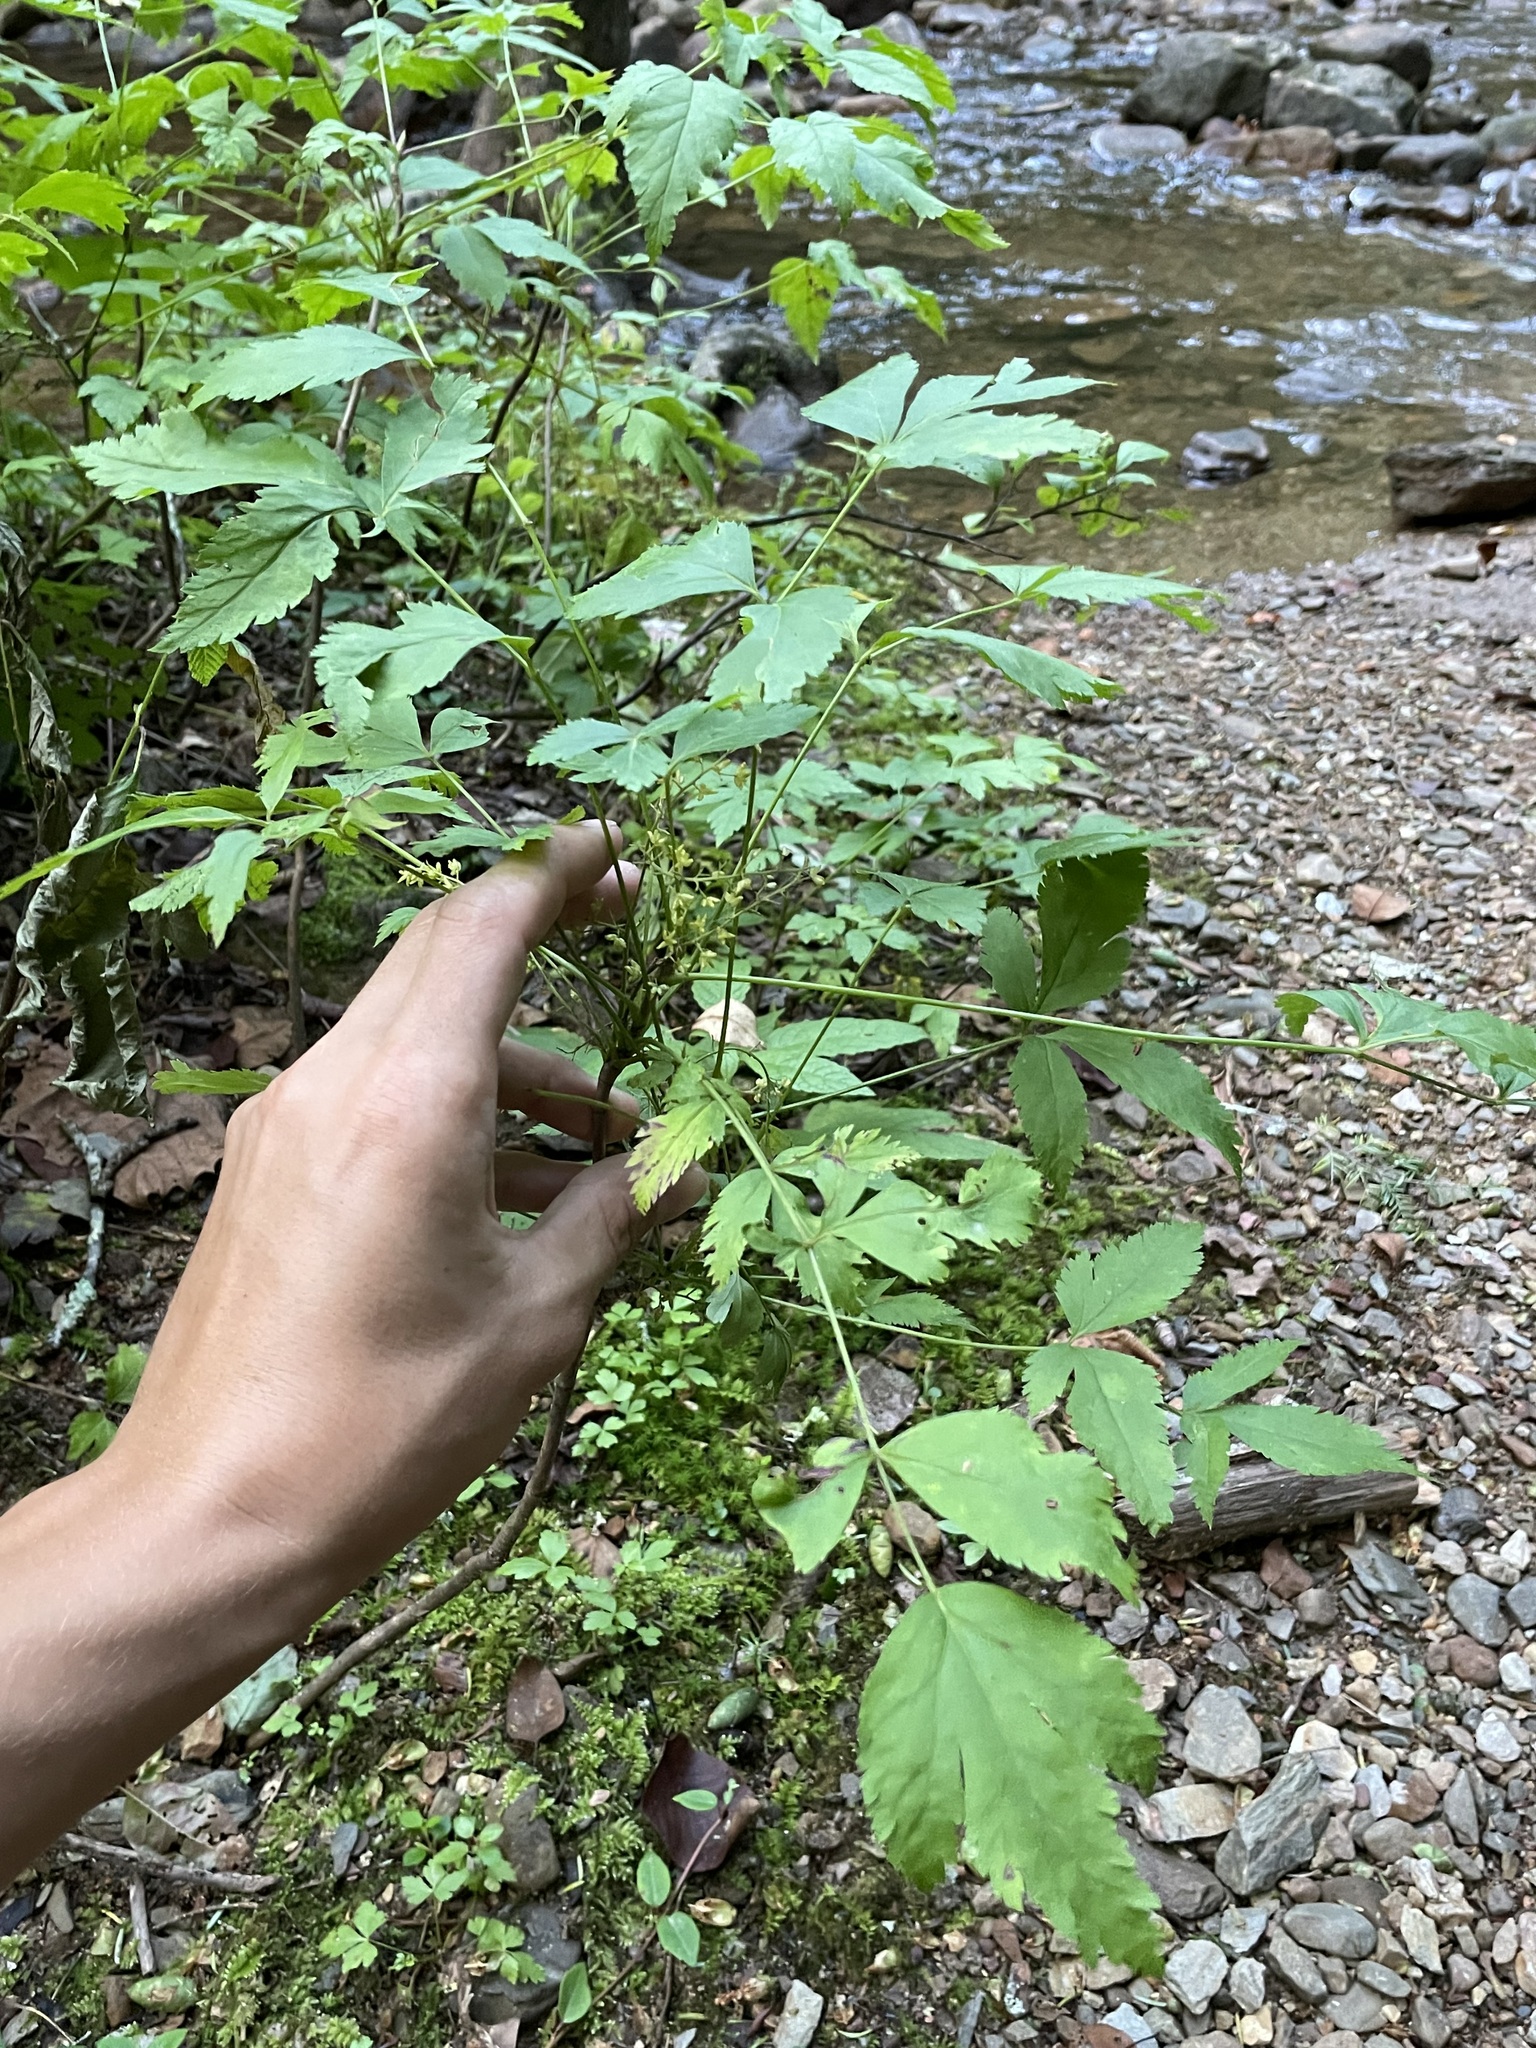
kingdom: Plantae
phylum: Tracheophyta
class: Magnoliopsida
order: Ranunculales
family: Ranunculaceae
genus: Xanthorhiza
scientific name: Xanthorhiza simplicissima
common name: Yellowroot
